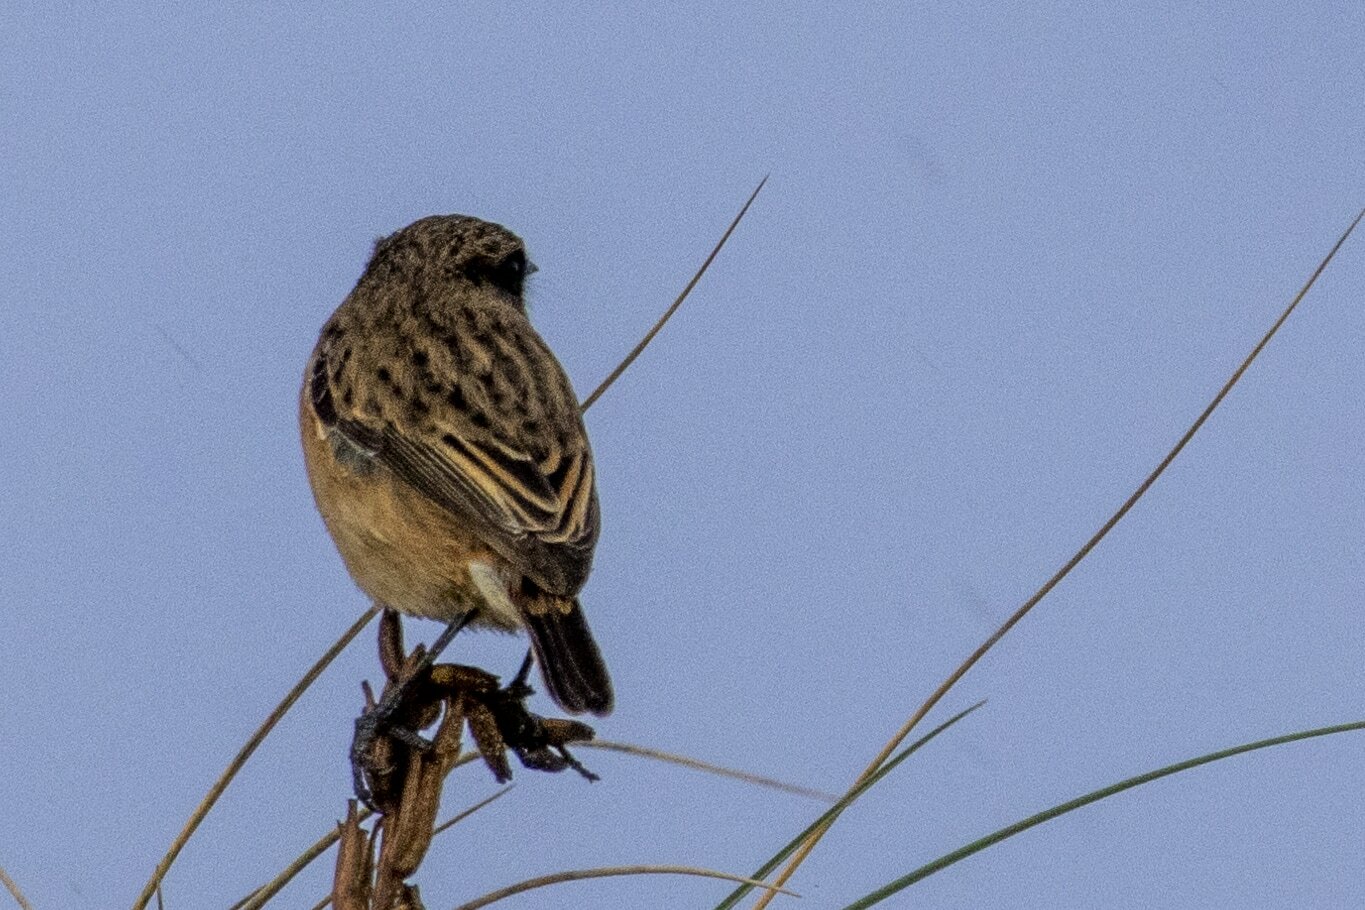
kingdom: Animalia
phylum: Chordata
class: Aves
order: Passeriformes
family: Muscicapidae
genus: Saxicola
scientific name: Saxicola rubicola
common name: European stonechat
